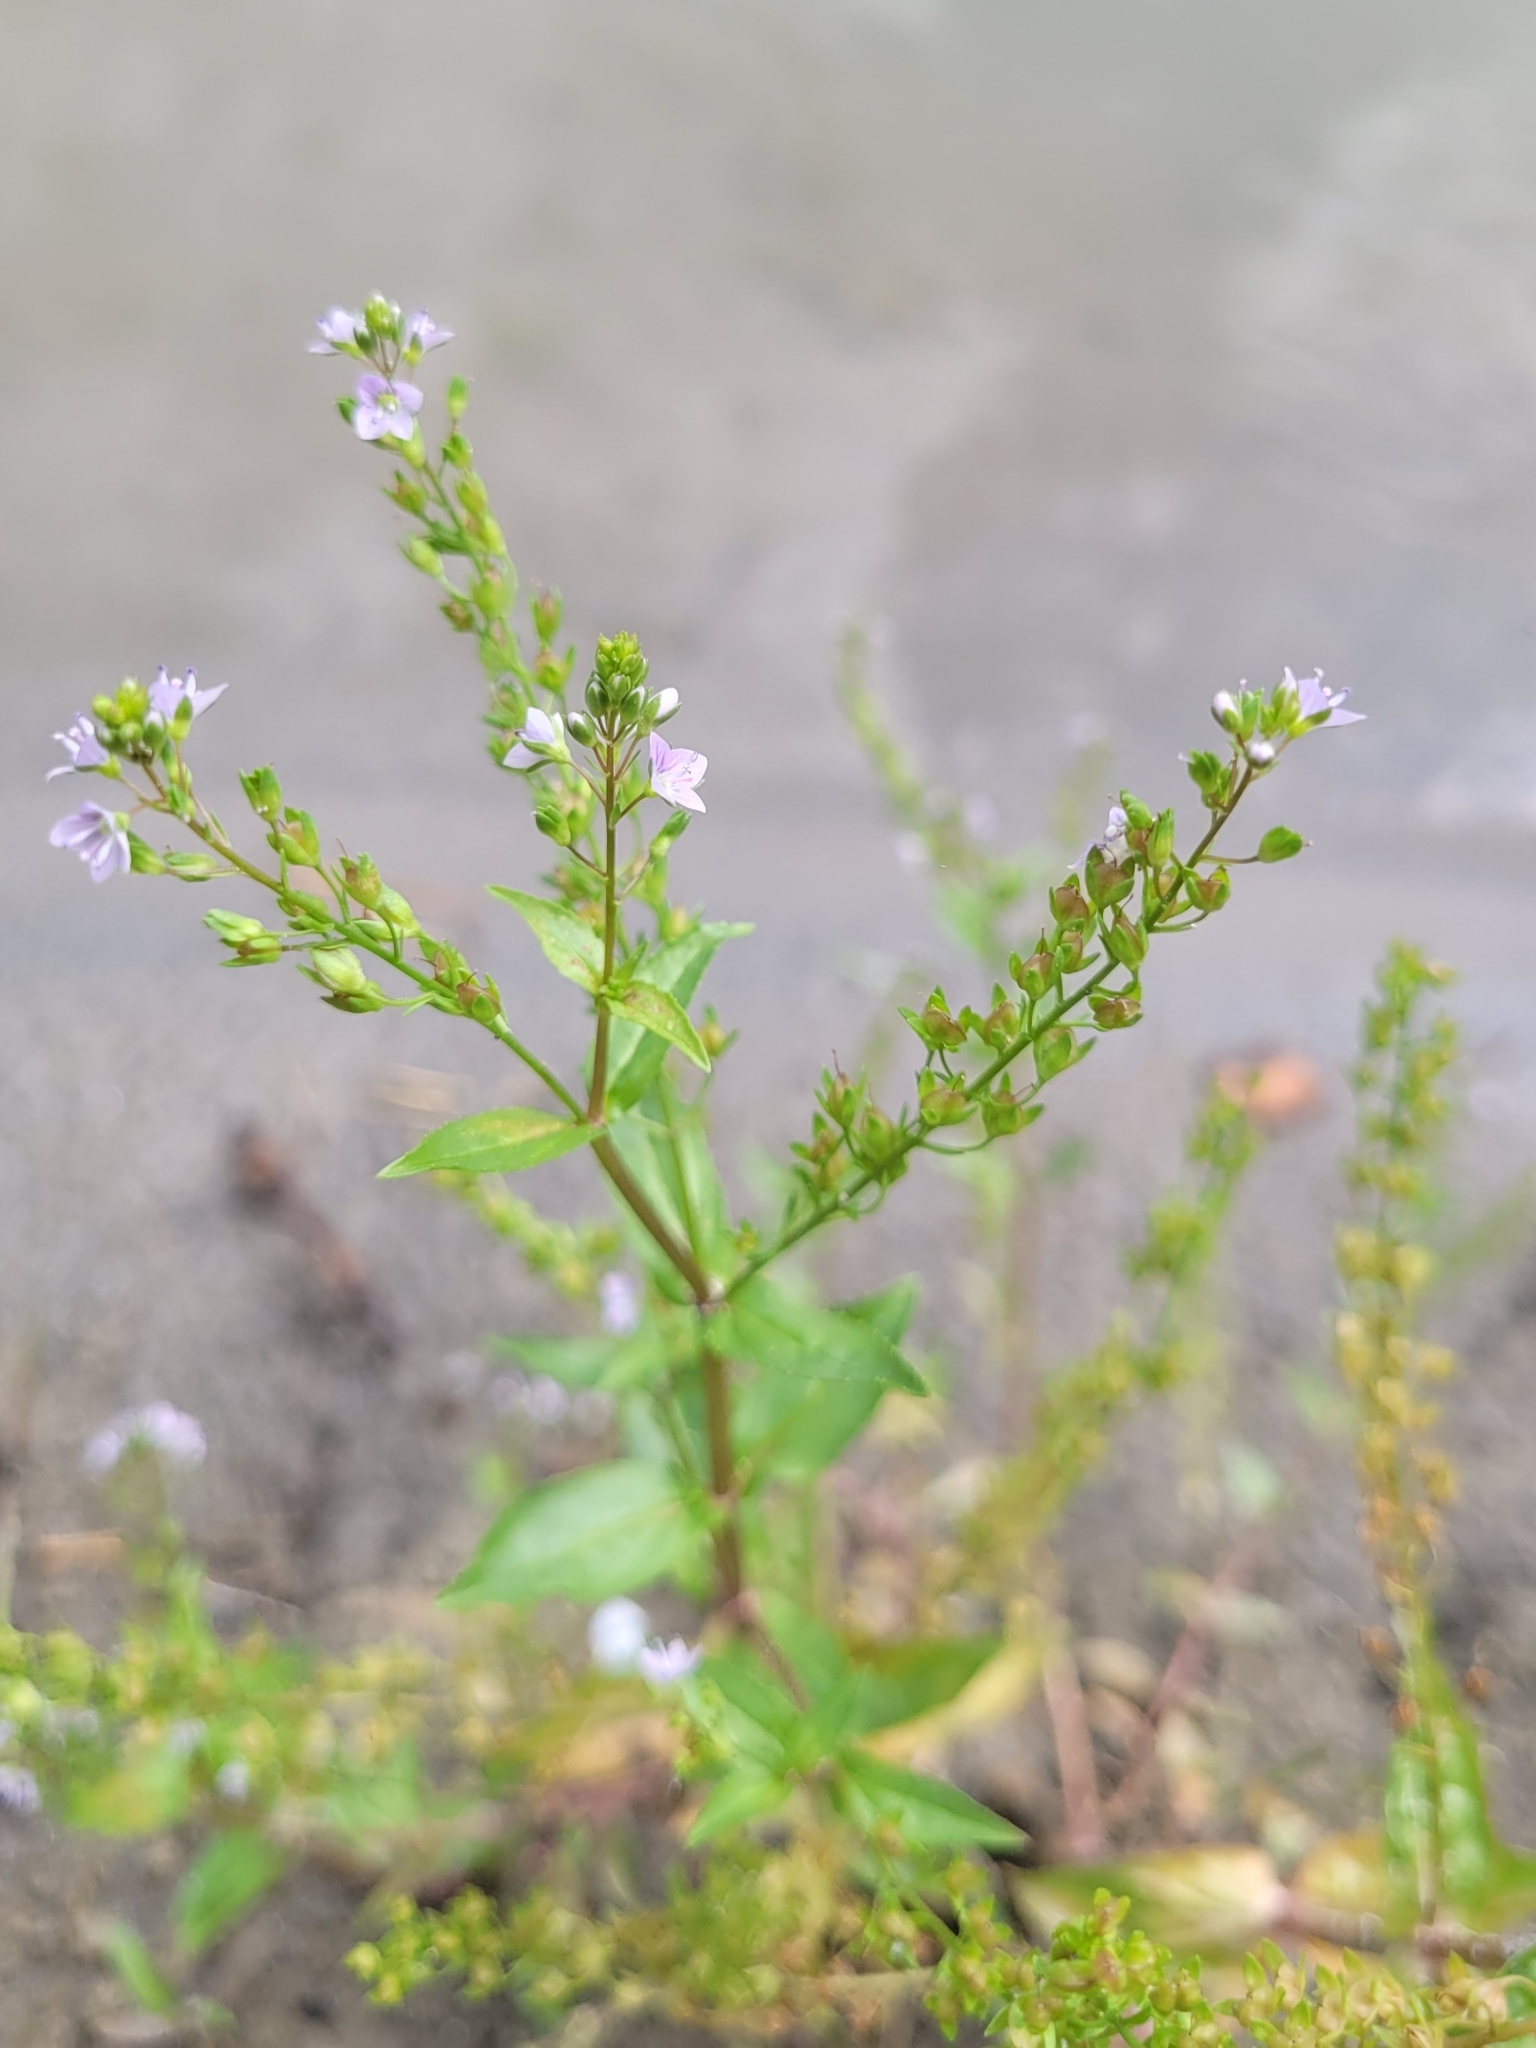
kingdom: Plantae
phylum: Tracheophyta
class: Magnoliopsida
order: Lamiales
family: Plantaginaceae
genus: Veronica
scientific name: Veronica anagallis-aquatica
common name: Water speedwell
